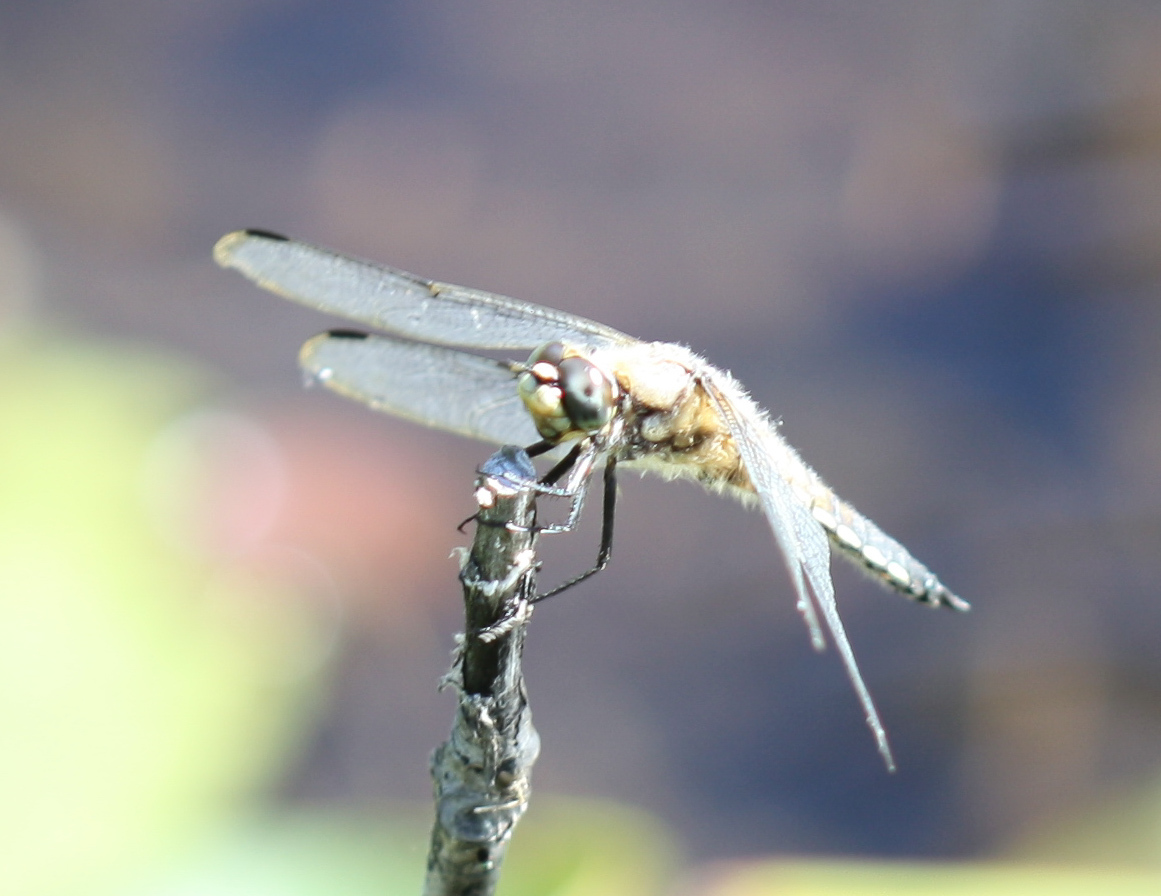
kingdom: Animalia
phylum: Arthropoda
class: Insecta
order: Odonata
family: Libellulidae
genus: Libellula
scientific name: Libellula quadrimaculata
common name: Four-spotted chaser
